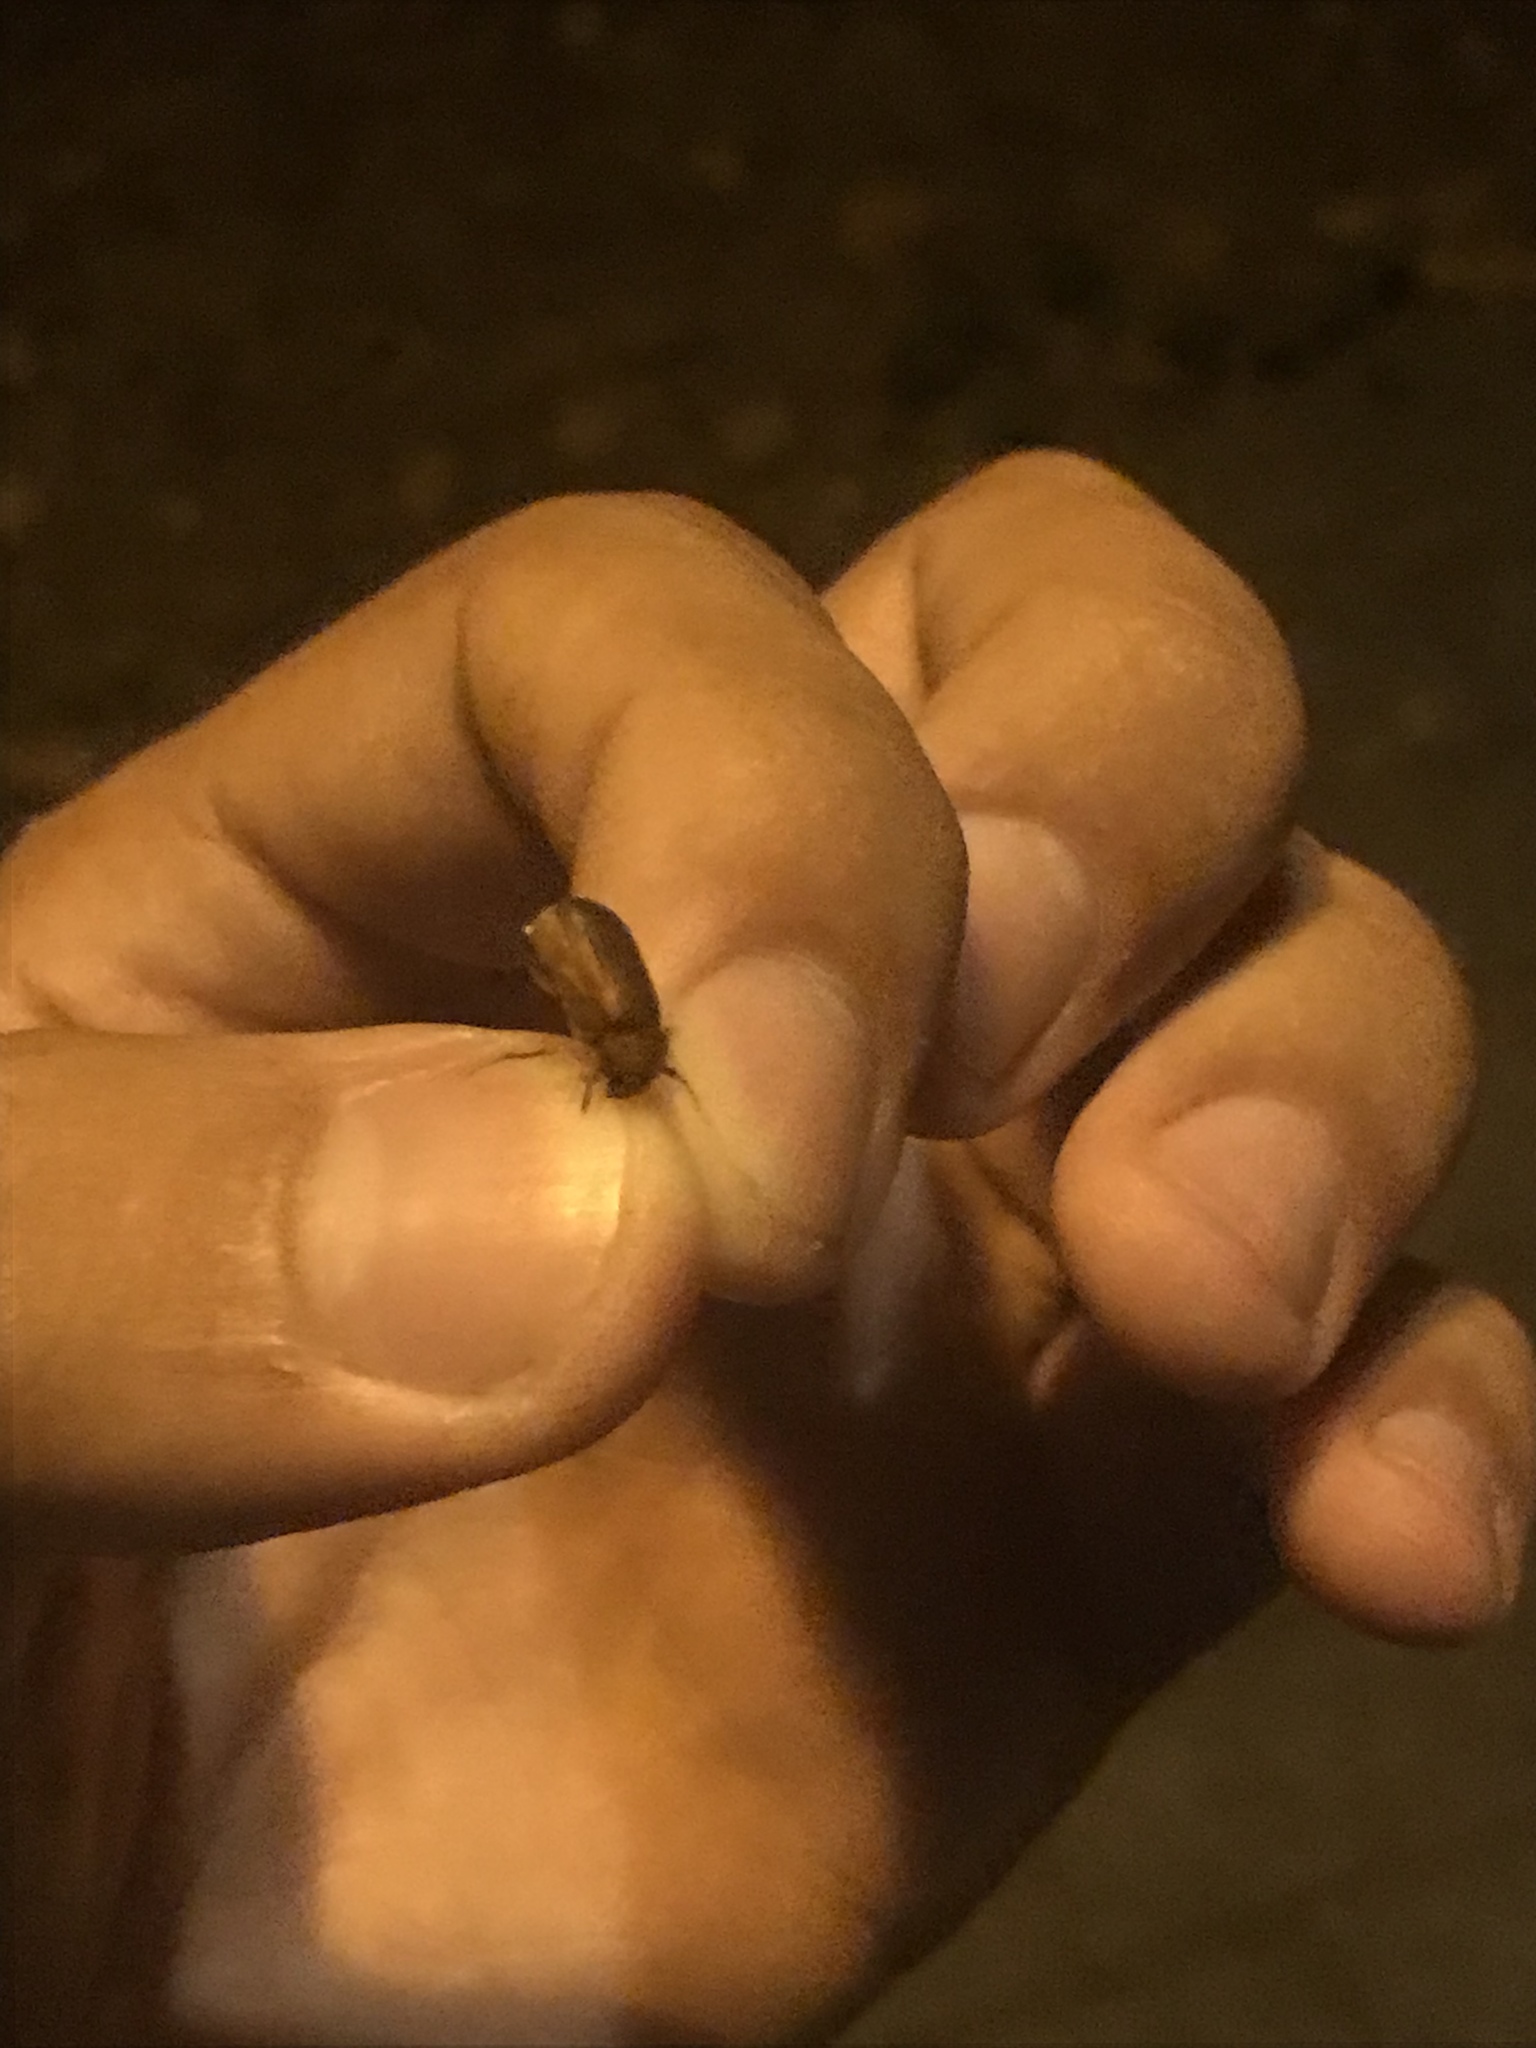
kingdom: Animalia
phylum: Arthropoda
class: Insecta
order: Coleoptera
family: Scarabaeidae
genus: Serica
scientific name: Serica brunnea
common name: Brown chafer
